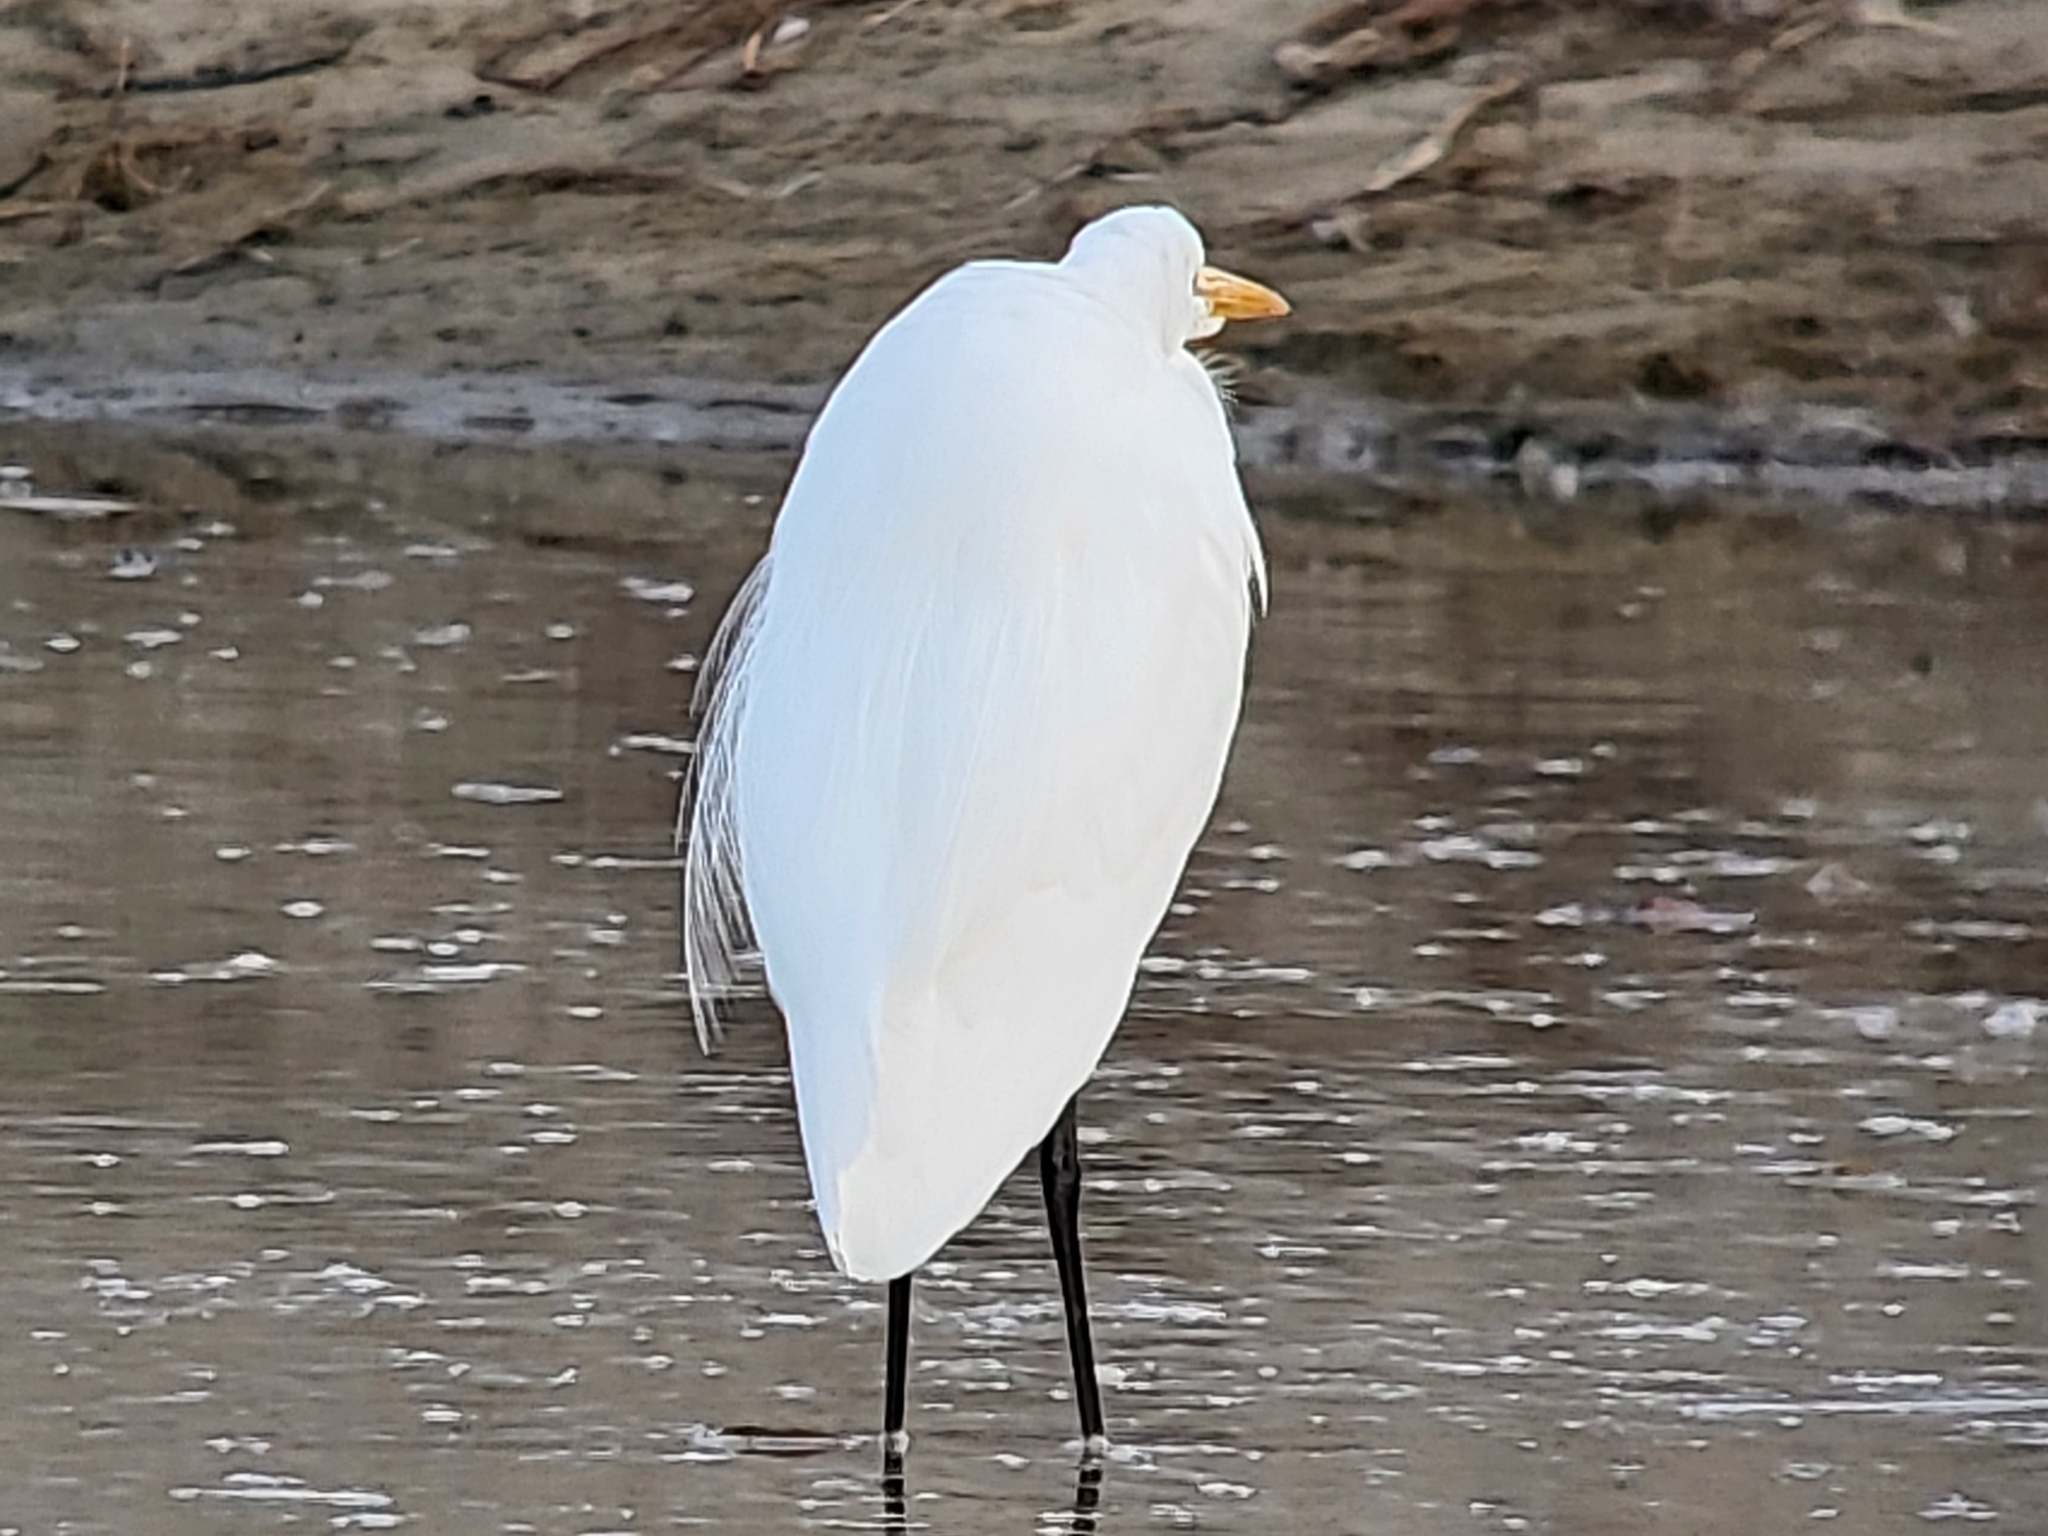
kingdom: Animalia
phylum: Chordata
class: Aves
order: Pelecaniformes
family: Ardeidae
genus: Ardea
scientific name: Ardea alba
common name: Great egret
